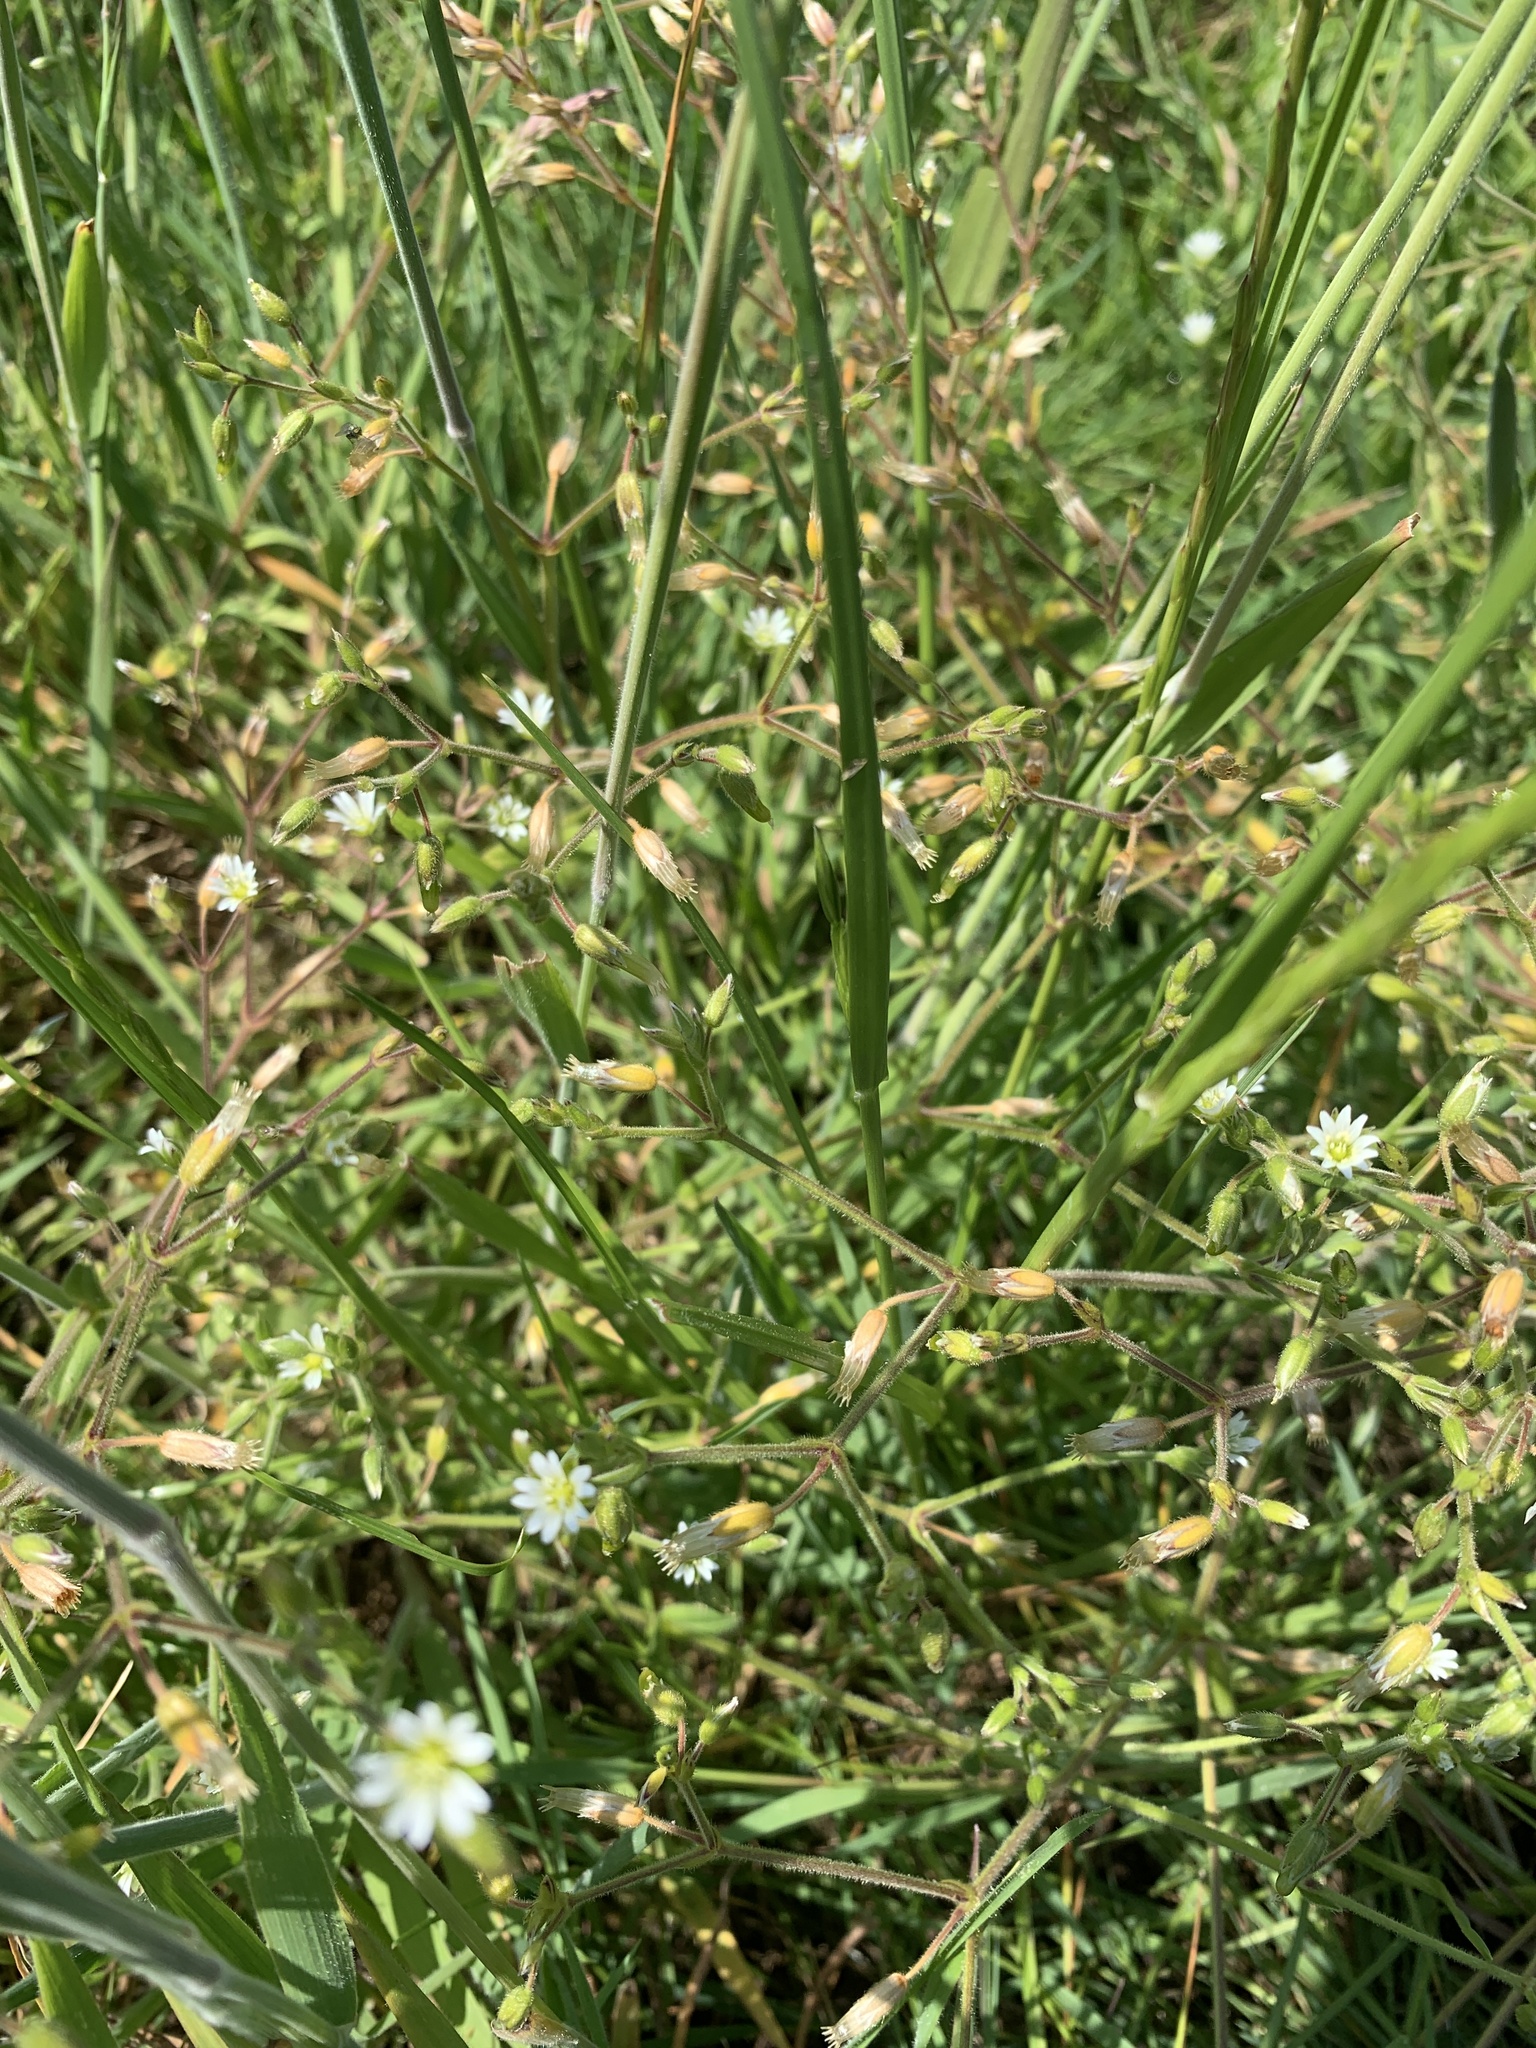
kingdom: Plantae
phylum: Tracheophyta
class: Magnoliopsida
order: Caryophyllales
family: Caryophyllaceae
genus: Stellaria
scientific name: Stellaria graminea
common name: Grass-like starwort
